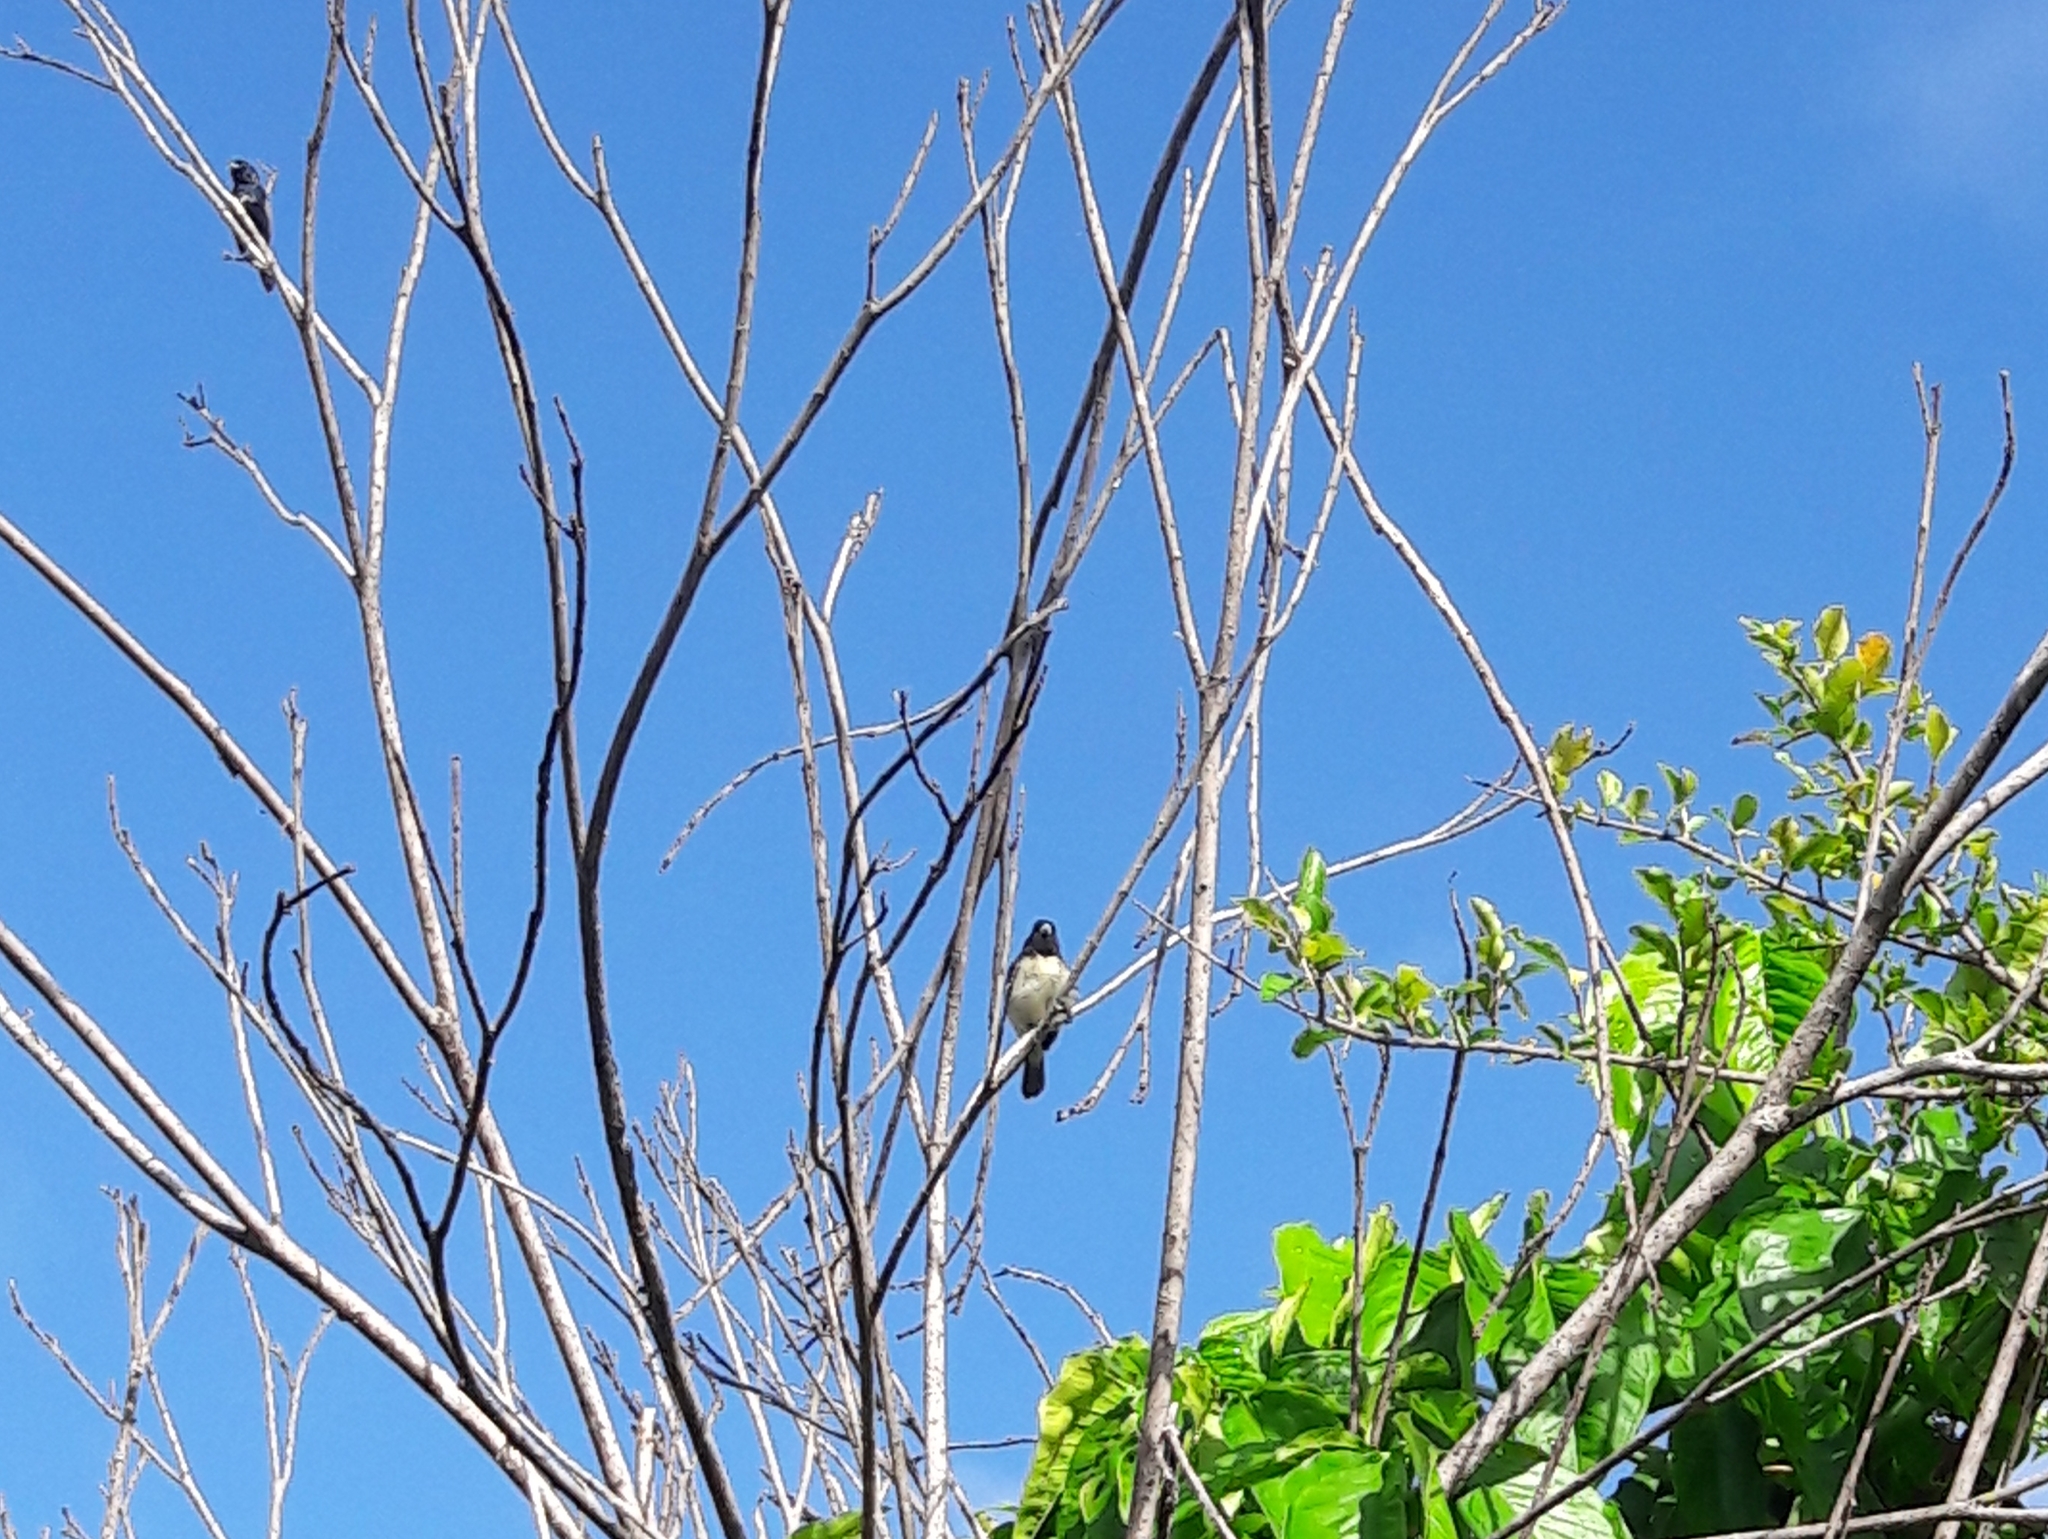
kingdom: Animalia
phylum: Chordata
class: Aves
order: Passeriformes
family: Thraupidae
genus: Sporophila
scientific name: Sporophila nigricollis
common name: Yellow-bellied seedeater
